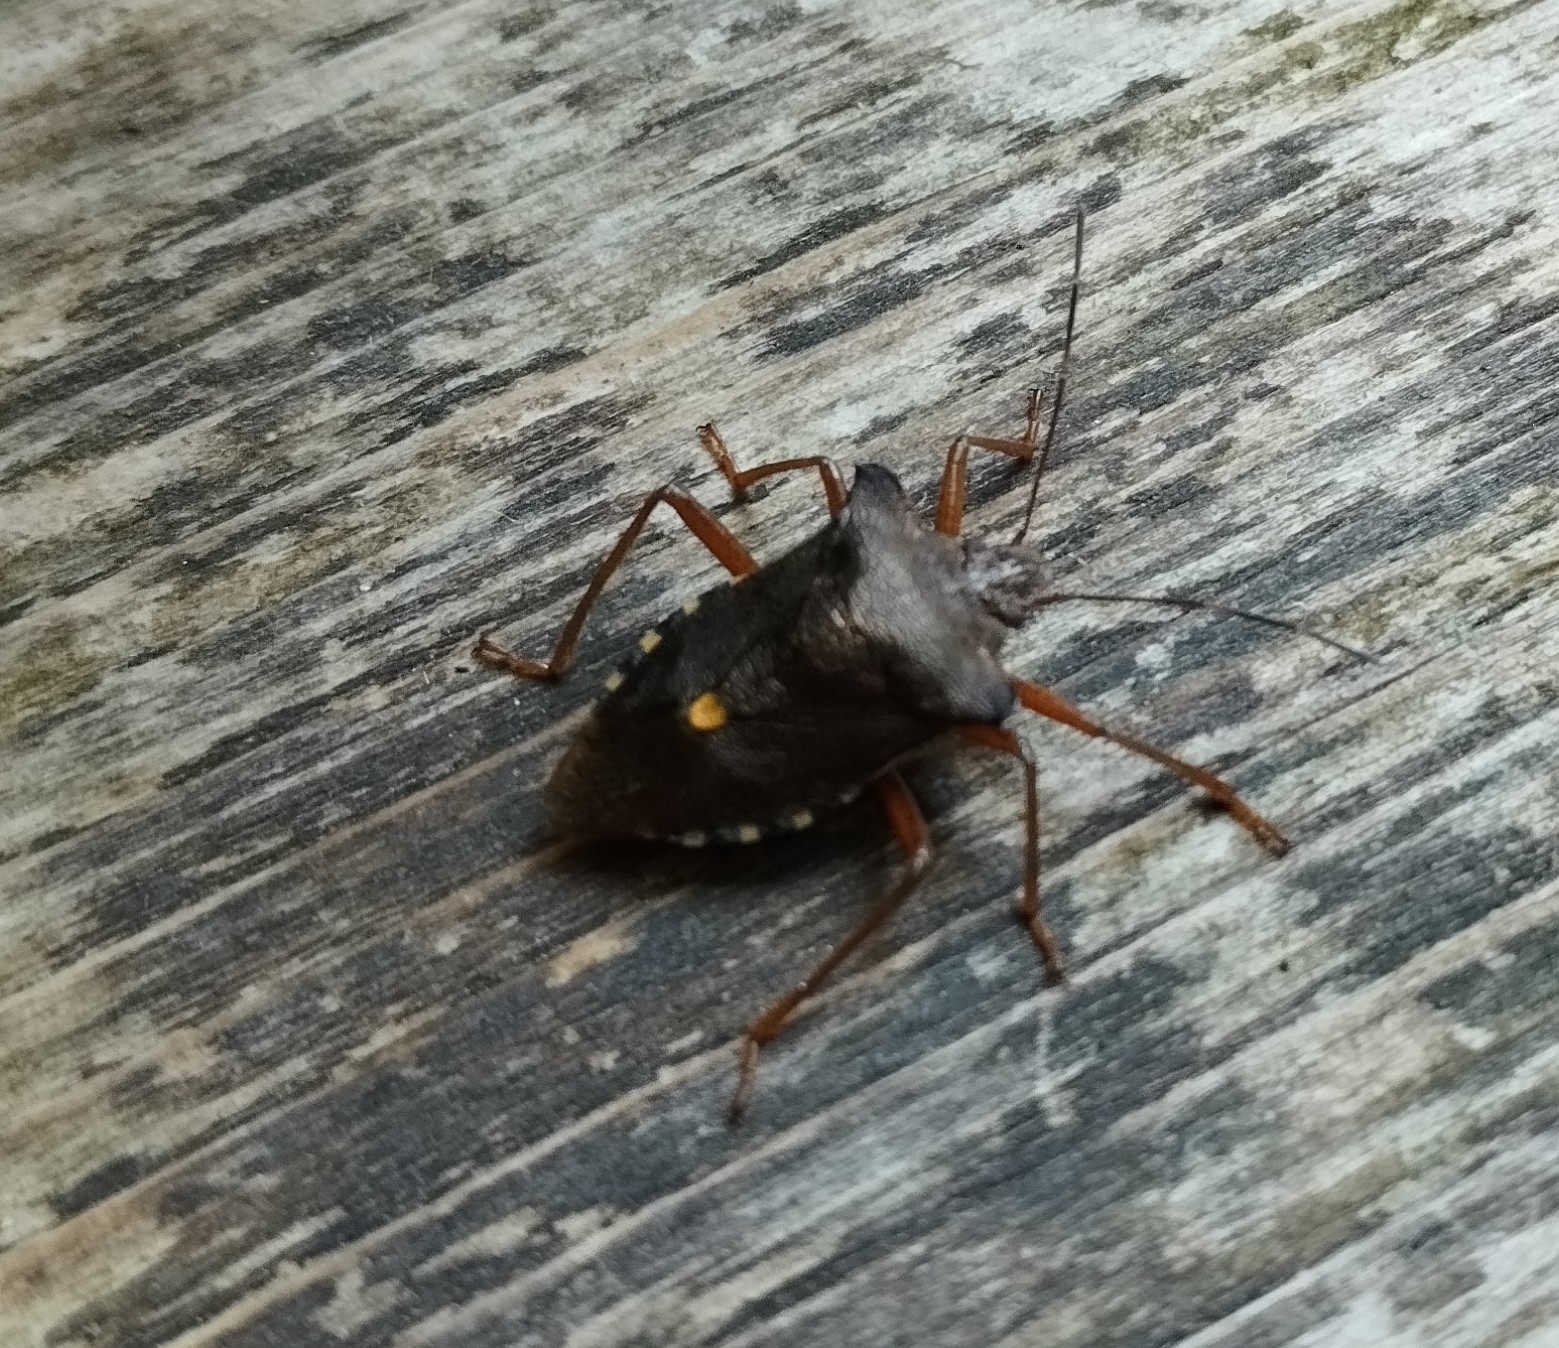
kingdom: Animalia
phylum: Arthropoda
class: Insecta
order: Hemiptera
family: Pentatomidae
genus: Pentatoma
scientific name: Pentatoma rufipes
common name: Forest bug
